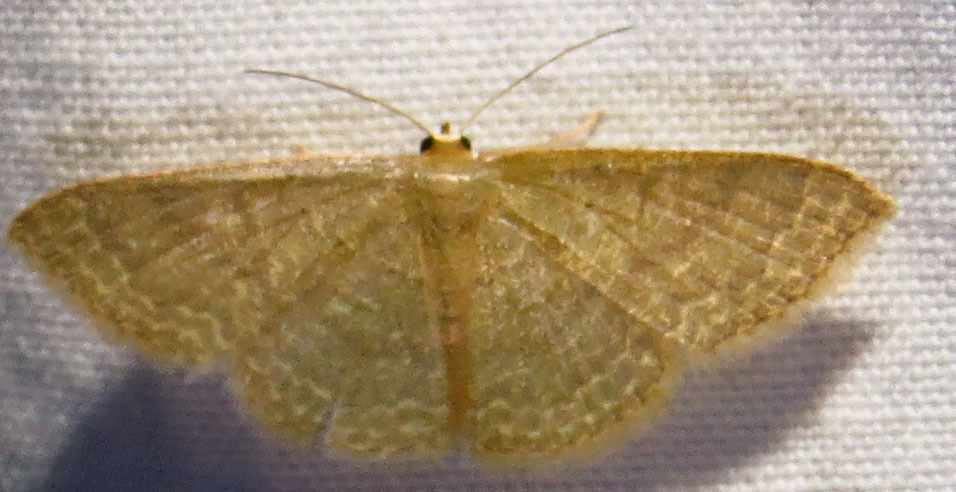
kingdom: Animalia
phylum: Arthropoda
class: Insecta
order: Lepidoptera
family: Geometridae
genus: Pleuroprucha
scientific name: Pleuroprucha insulsaria
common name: Common tan wave
